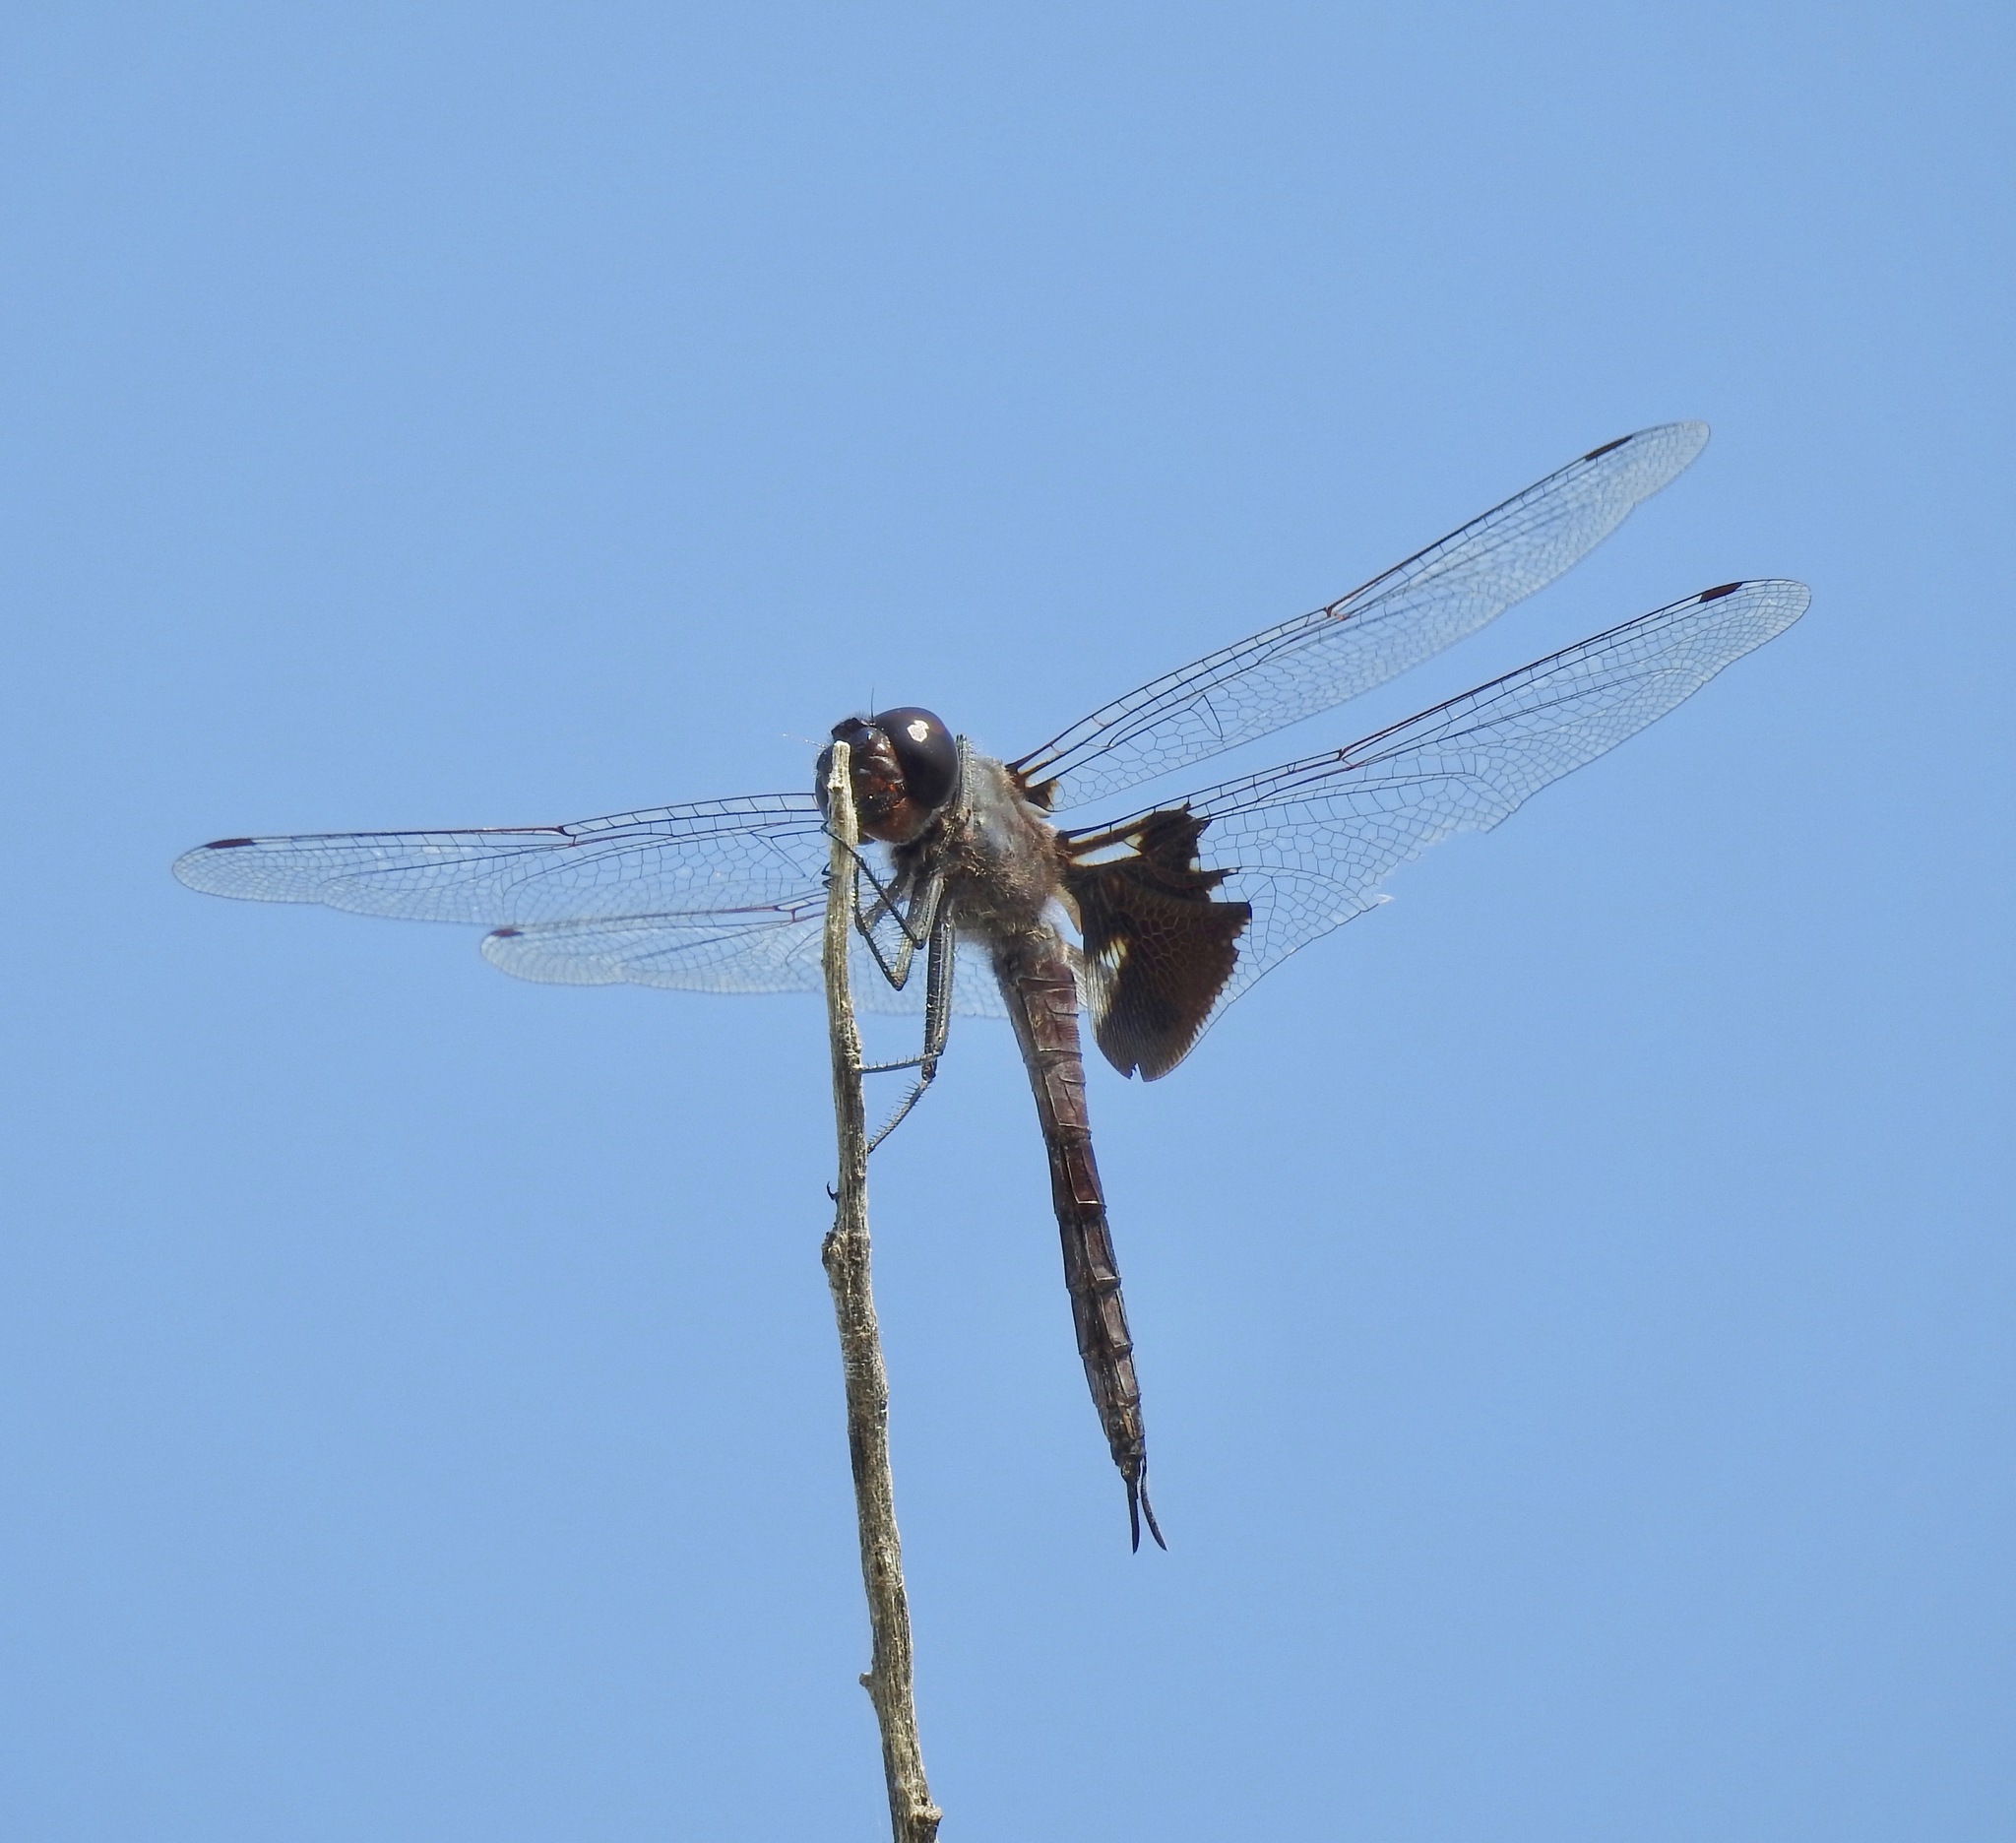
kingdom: Animalia
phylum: Arthropoda
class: Insecta
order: Odonata
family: Libellulidae
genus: Tramea
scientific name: Tramea lacerata
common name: Black saddlebags
